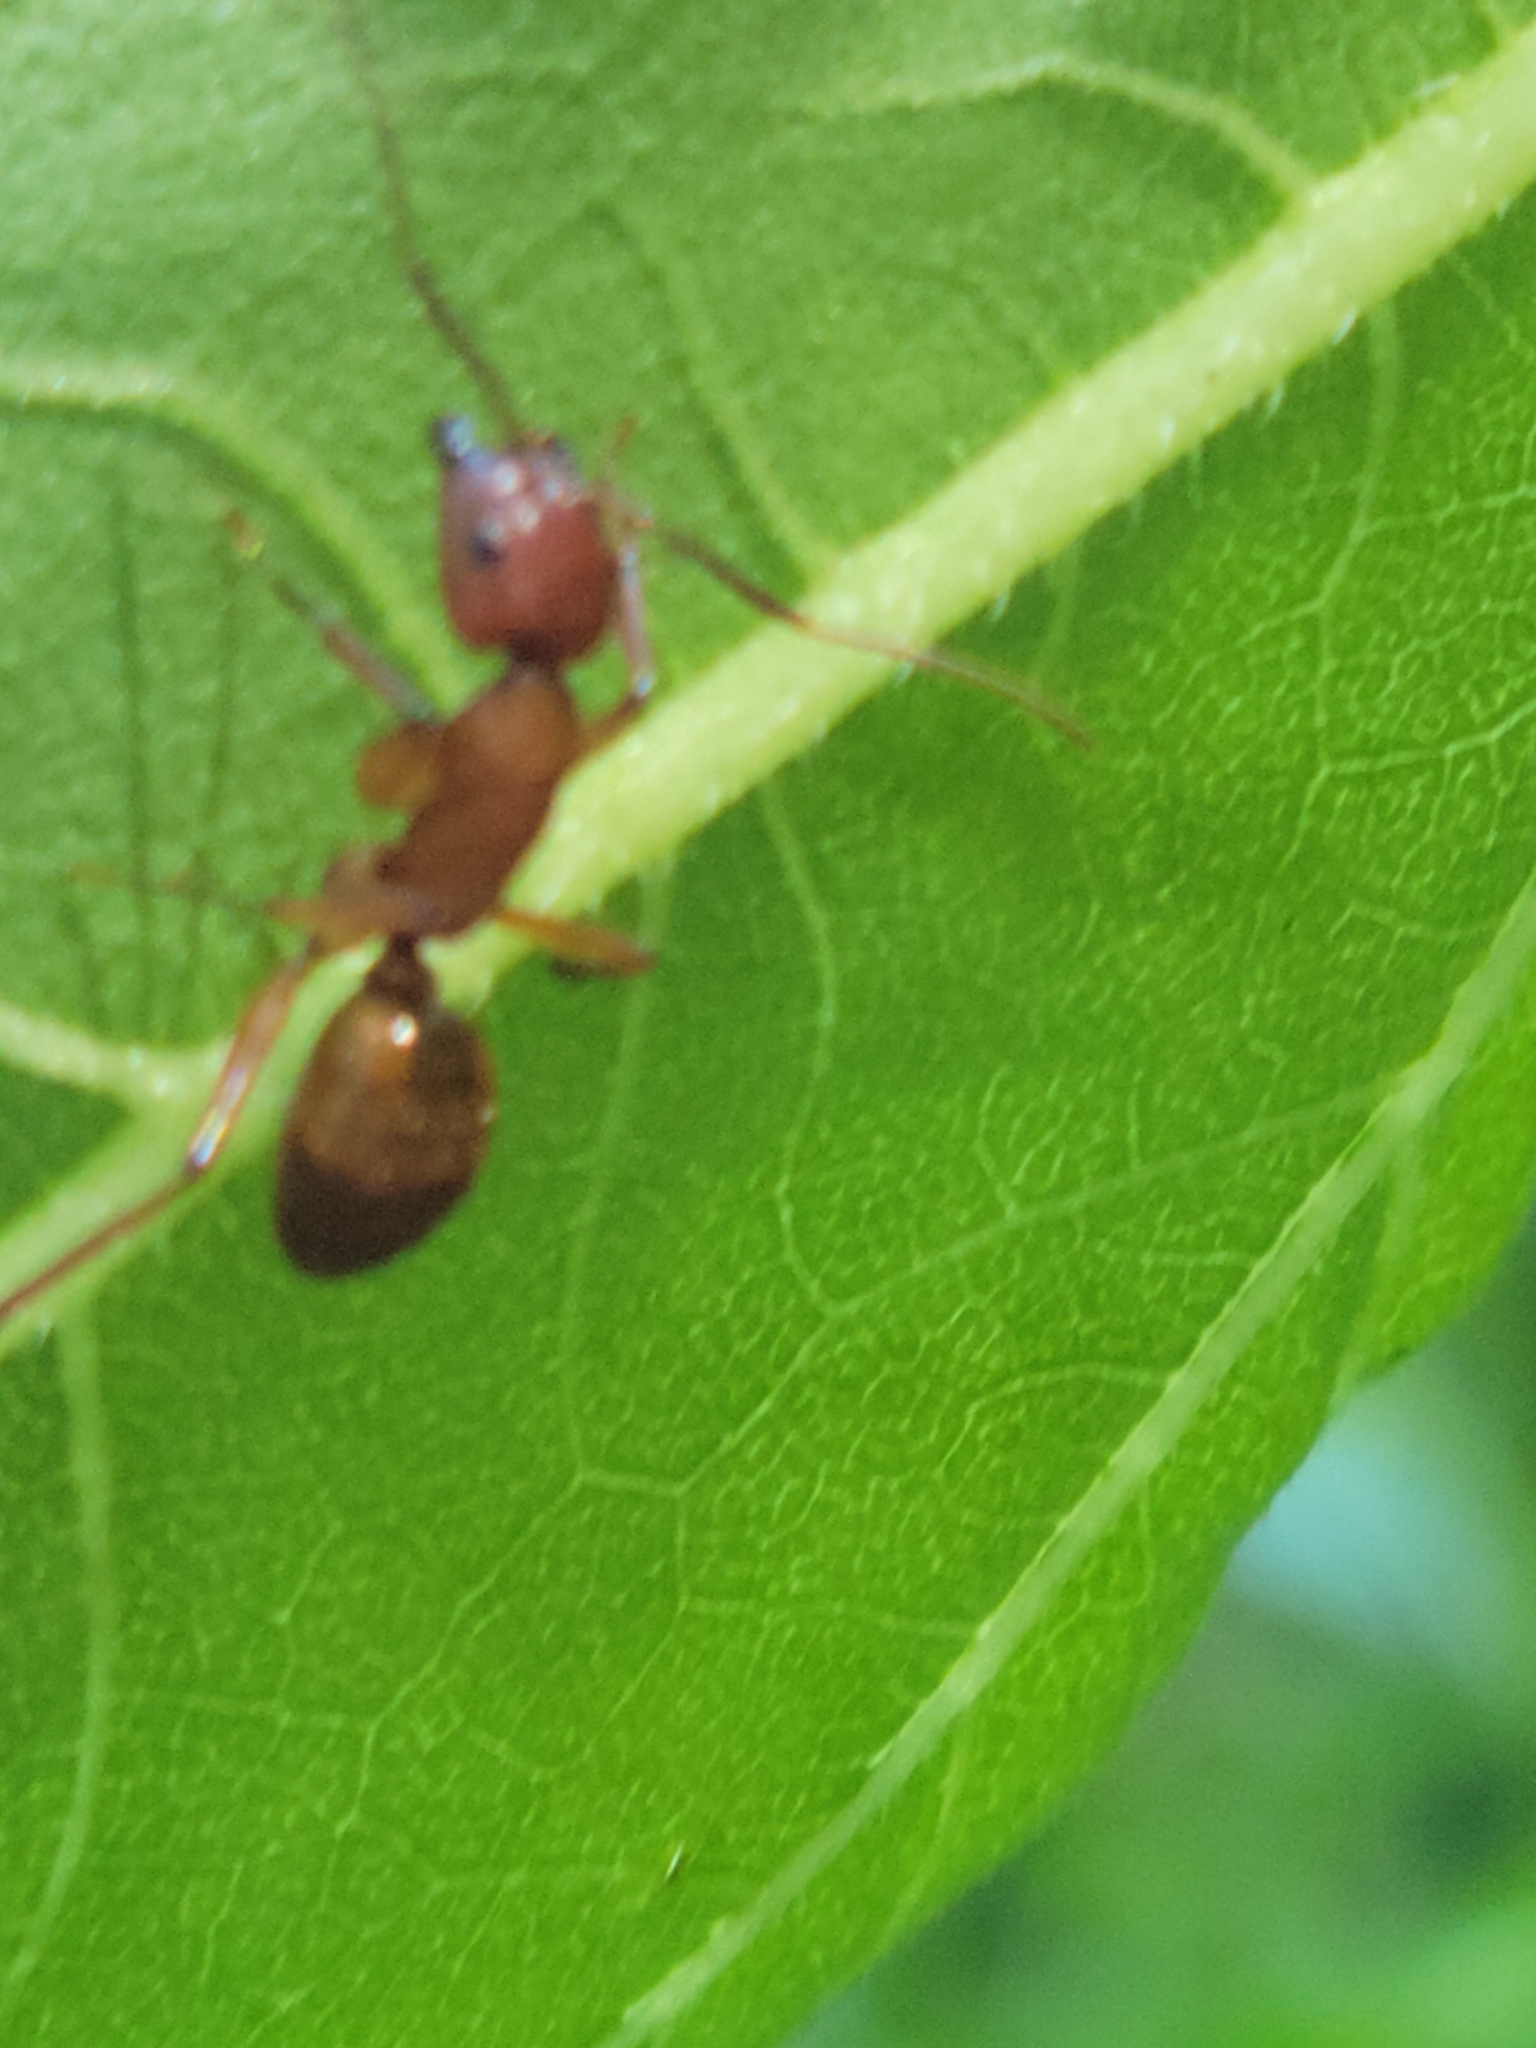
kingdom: Animalia
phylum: Arthropoda
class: Insecta
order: Hymenoptera
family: Formicidae
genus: Camponotus
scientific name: Camponotus castaneus
